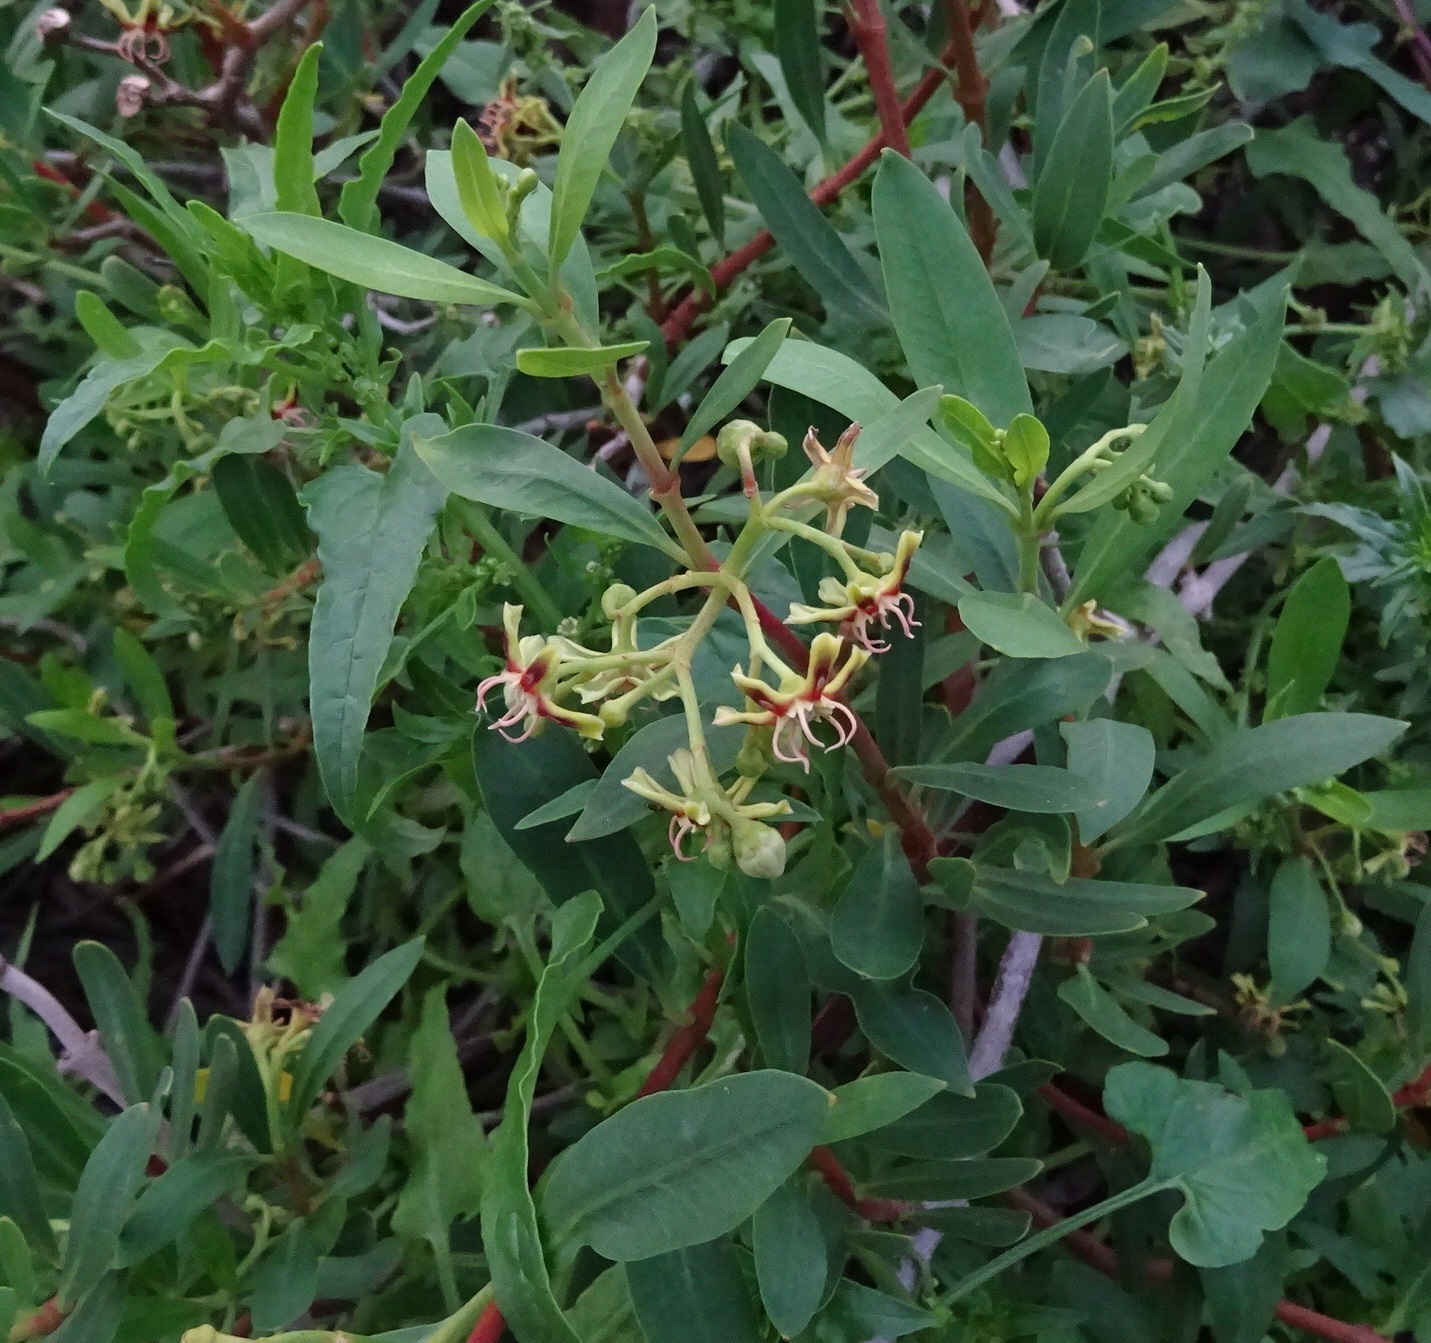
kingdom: Plantae
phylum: Tracheophyta
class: Magnoliopsida
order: Gentianales
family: Apocynaceae
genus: Periploca
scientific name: Periploca laevigata
